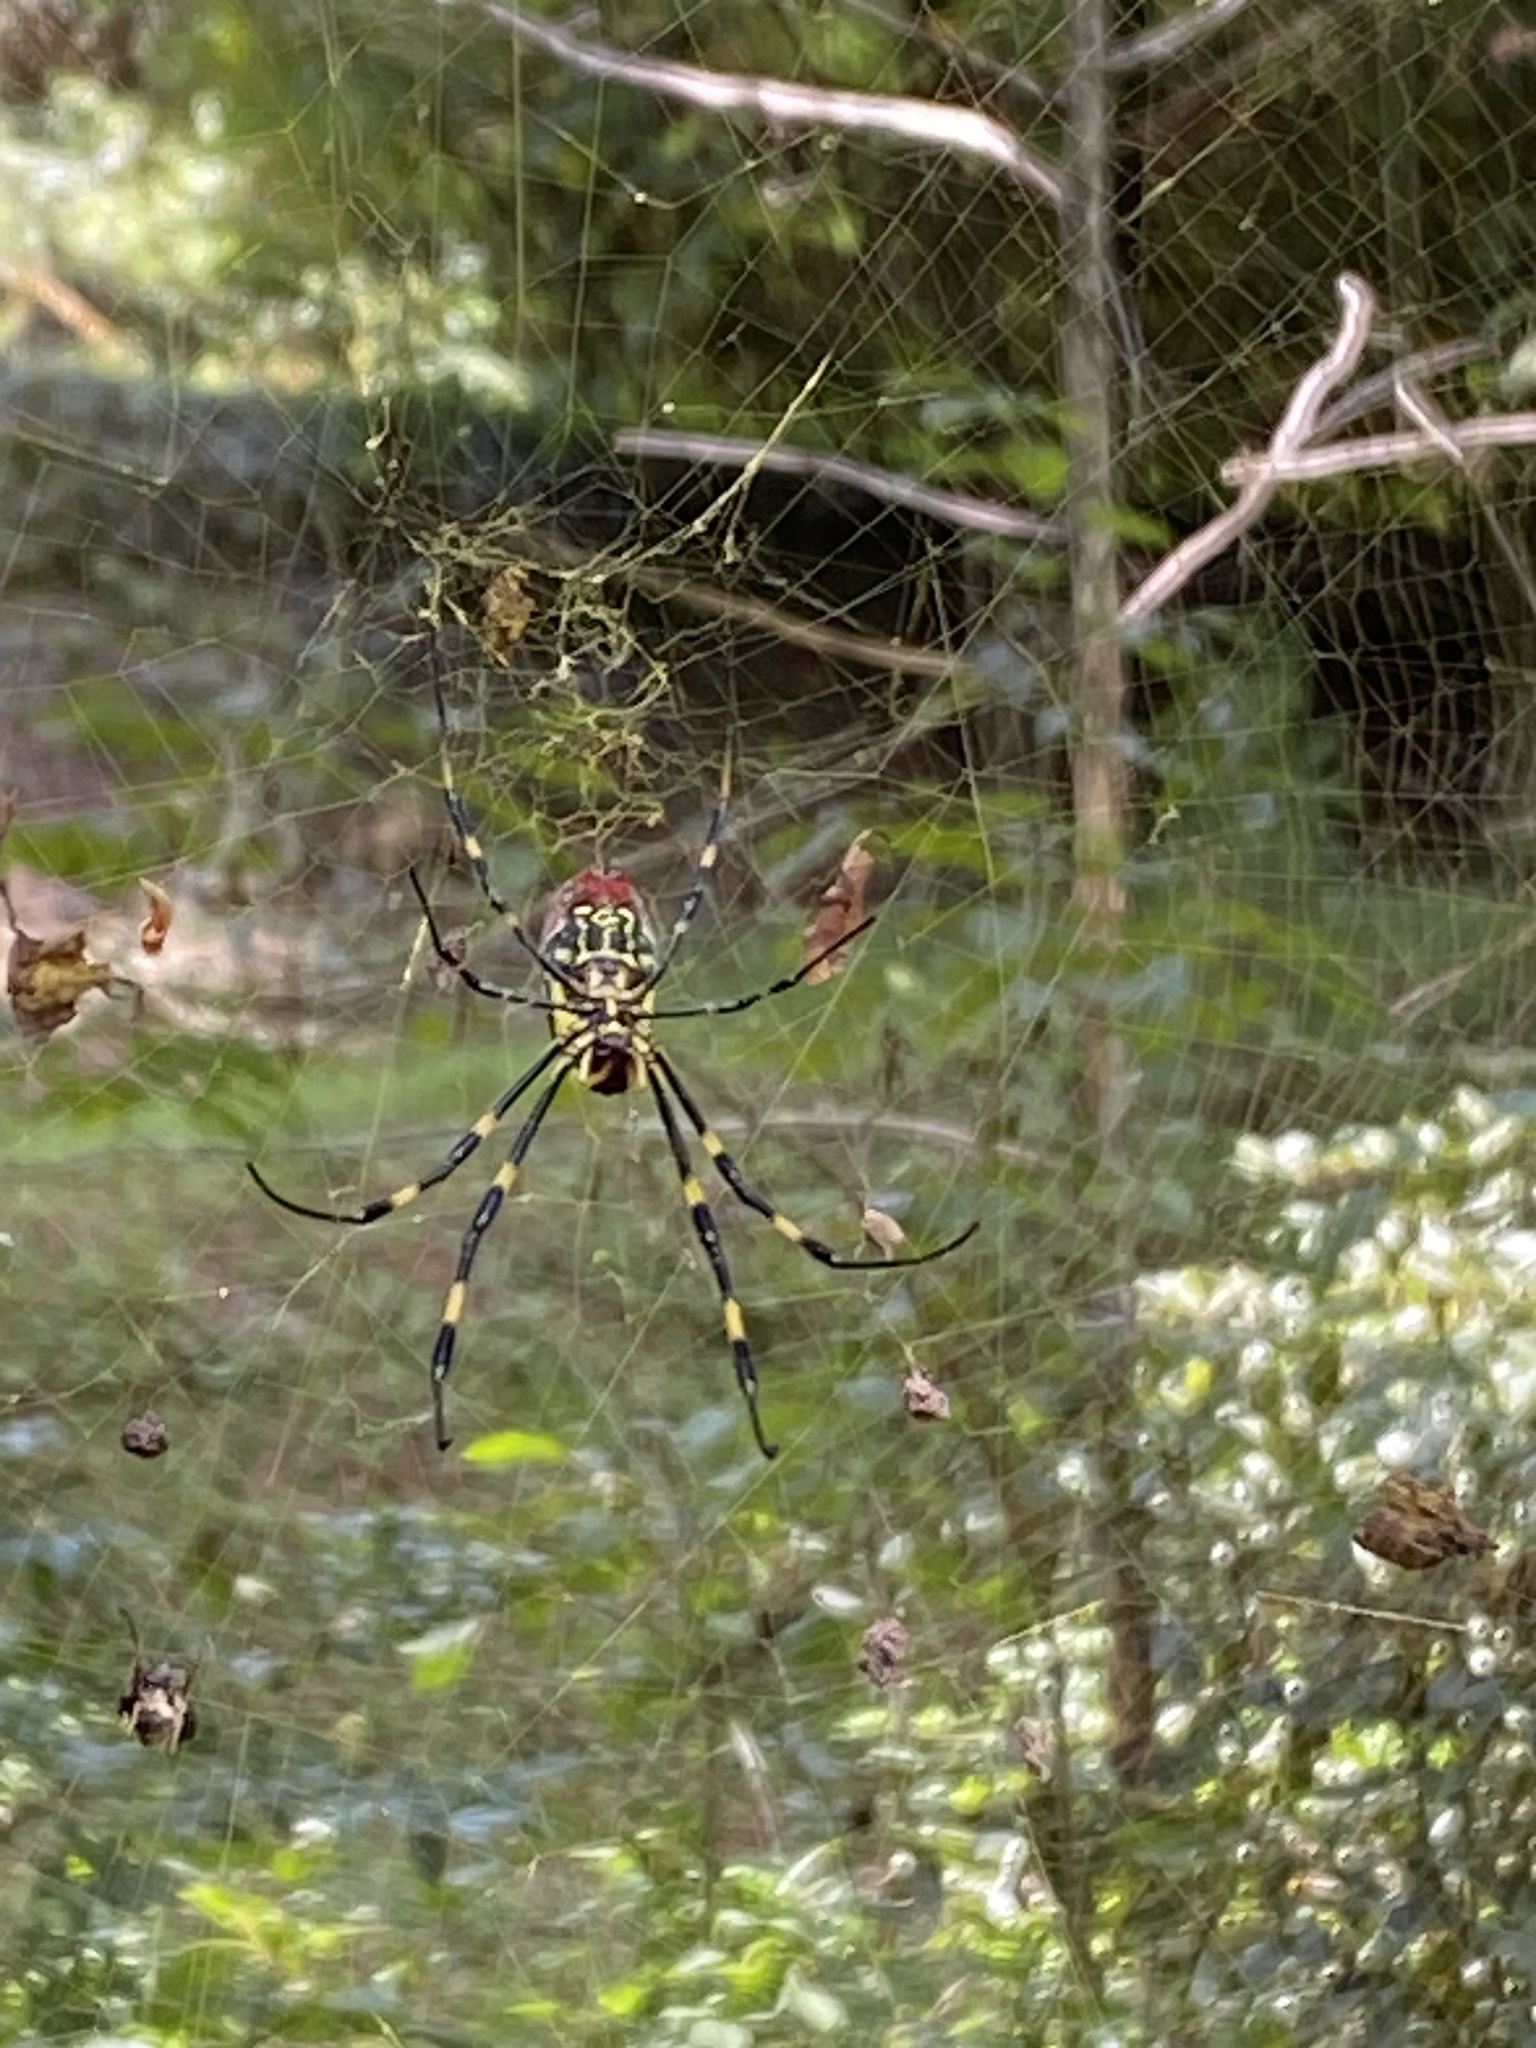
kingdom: Animalia
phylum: Arthropoda
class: Arachnida
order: Araneae
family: Araneidae
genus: Trichonephila
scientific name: Trichonephila clavata
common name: Jorō spider
